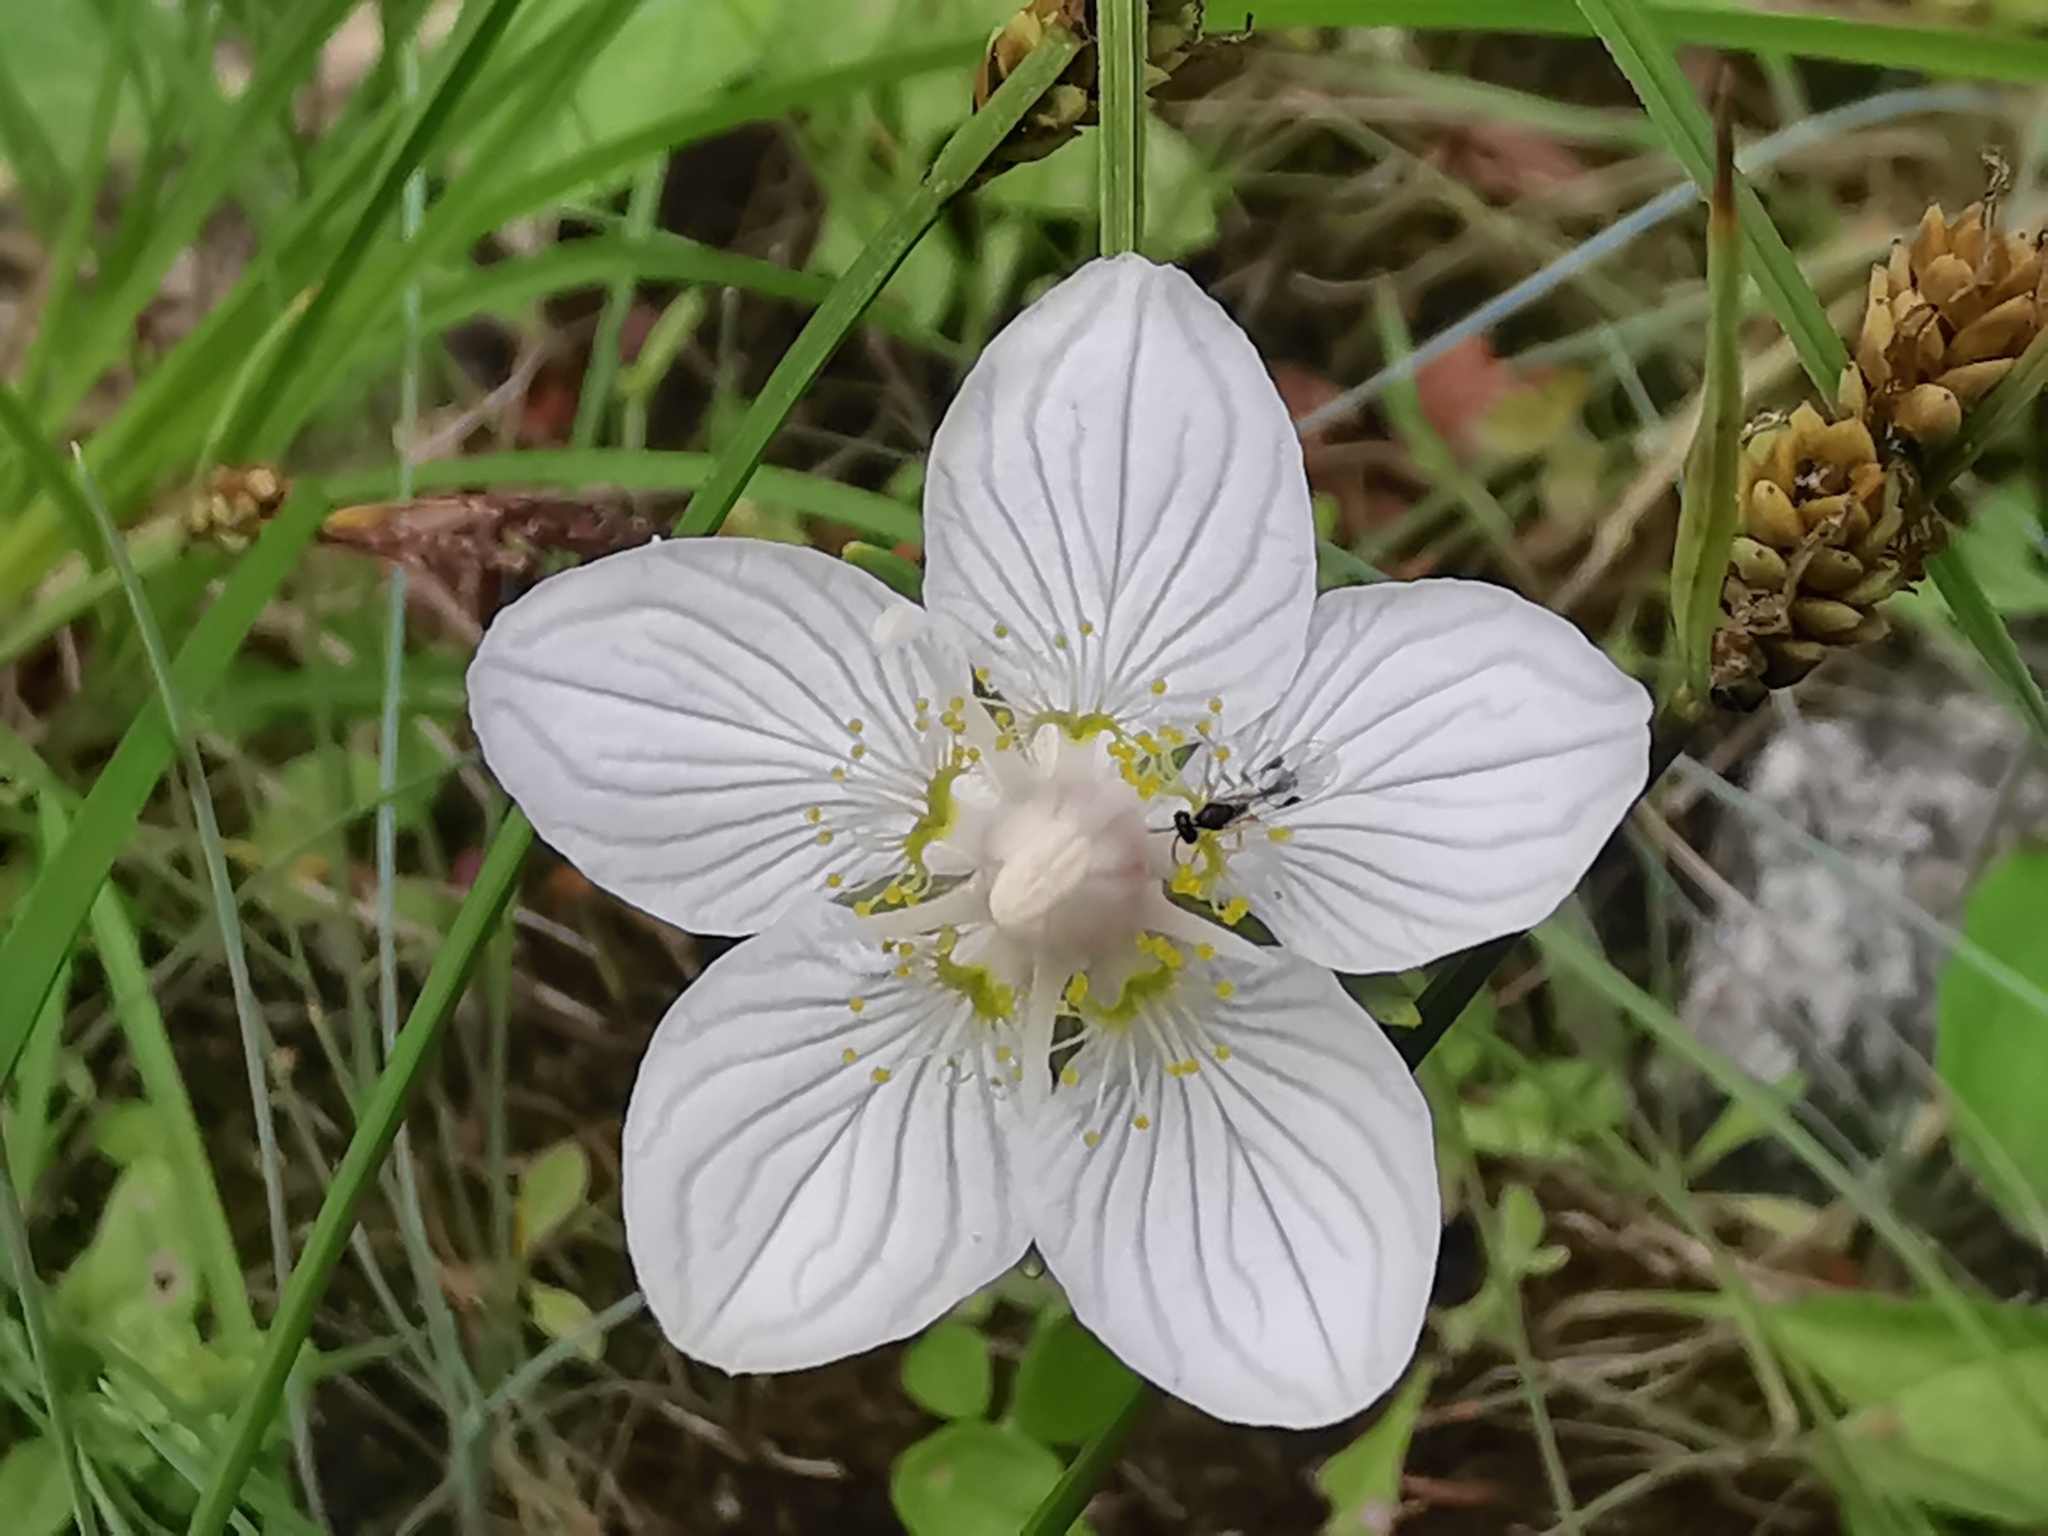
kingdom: Plantae
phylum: Tracheophyta
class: Magnoliopsida
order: Celastrales
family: Parnassiaceae
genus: Parnassia
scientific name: Parnassia palustris
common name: Grass-of-parnassus
